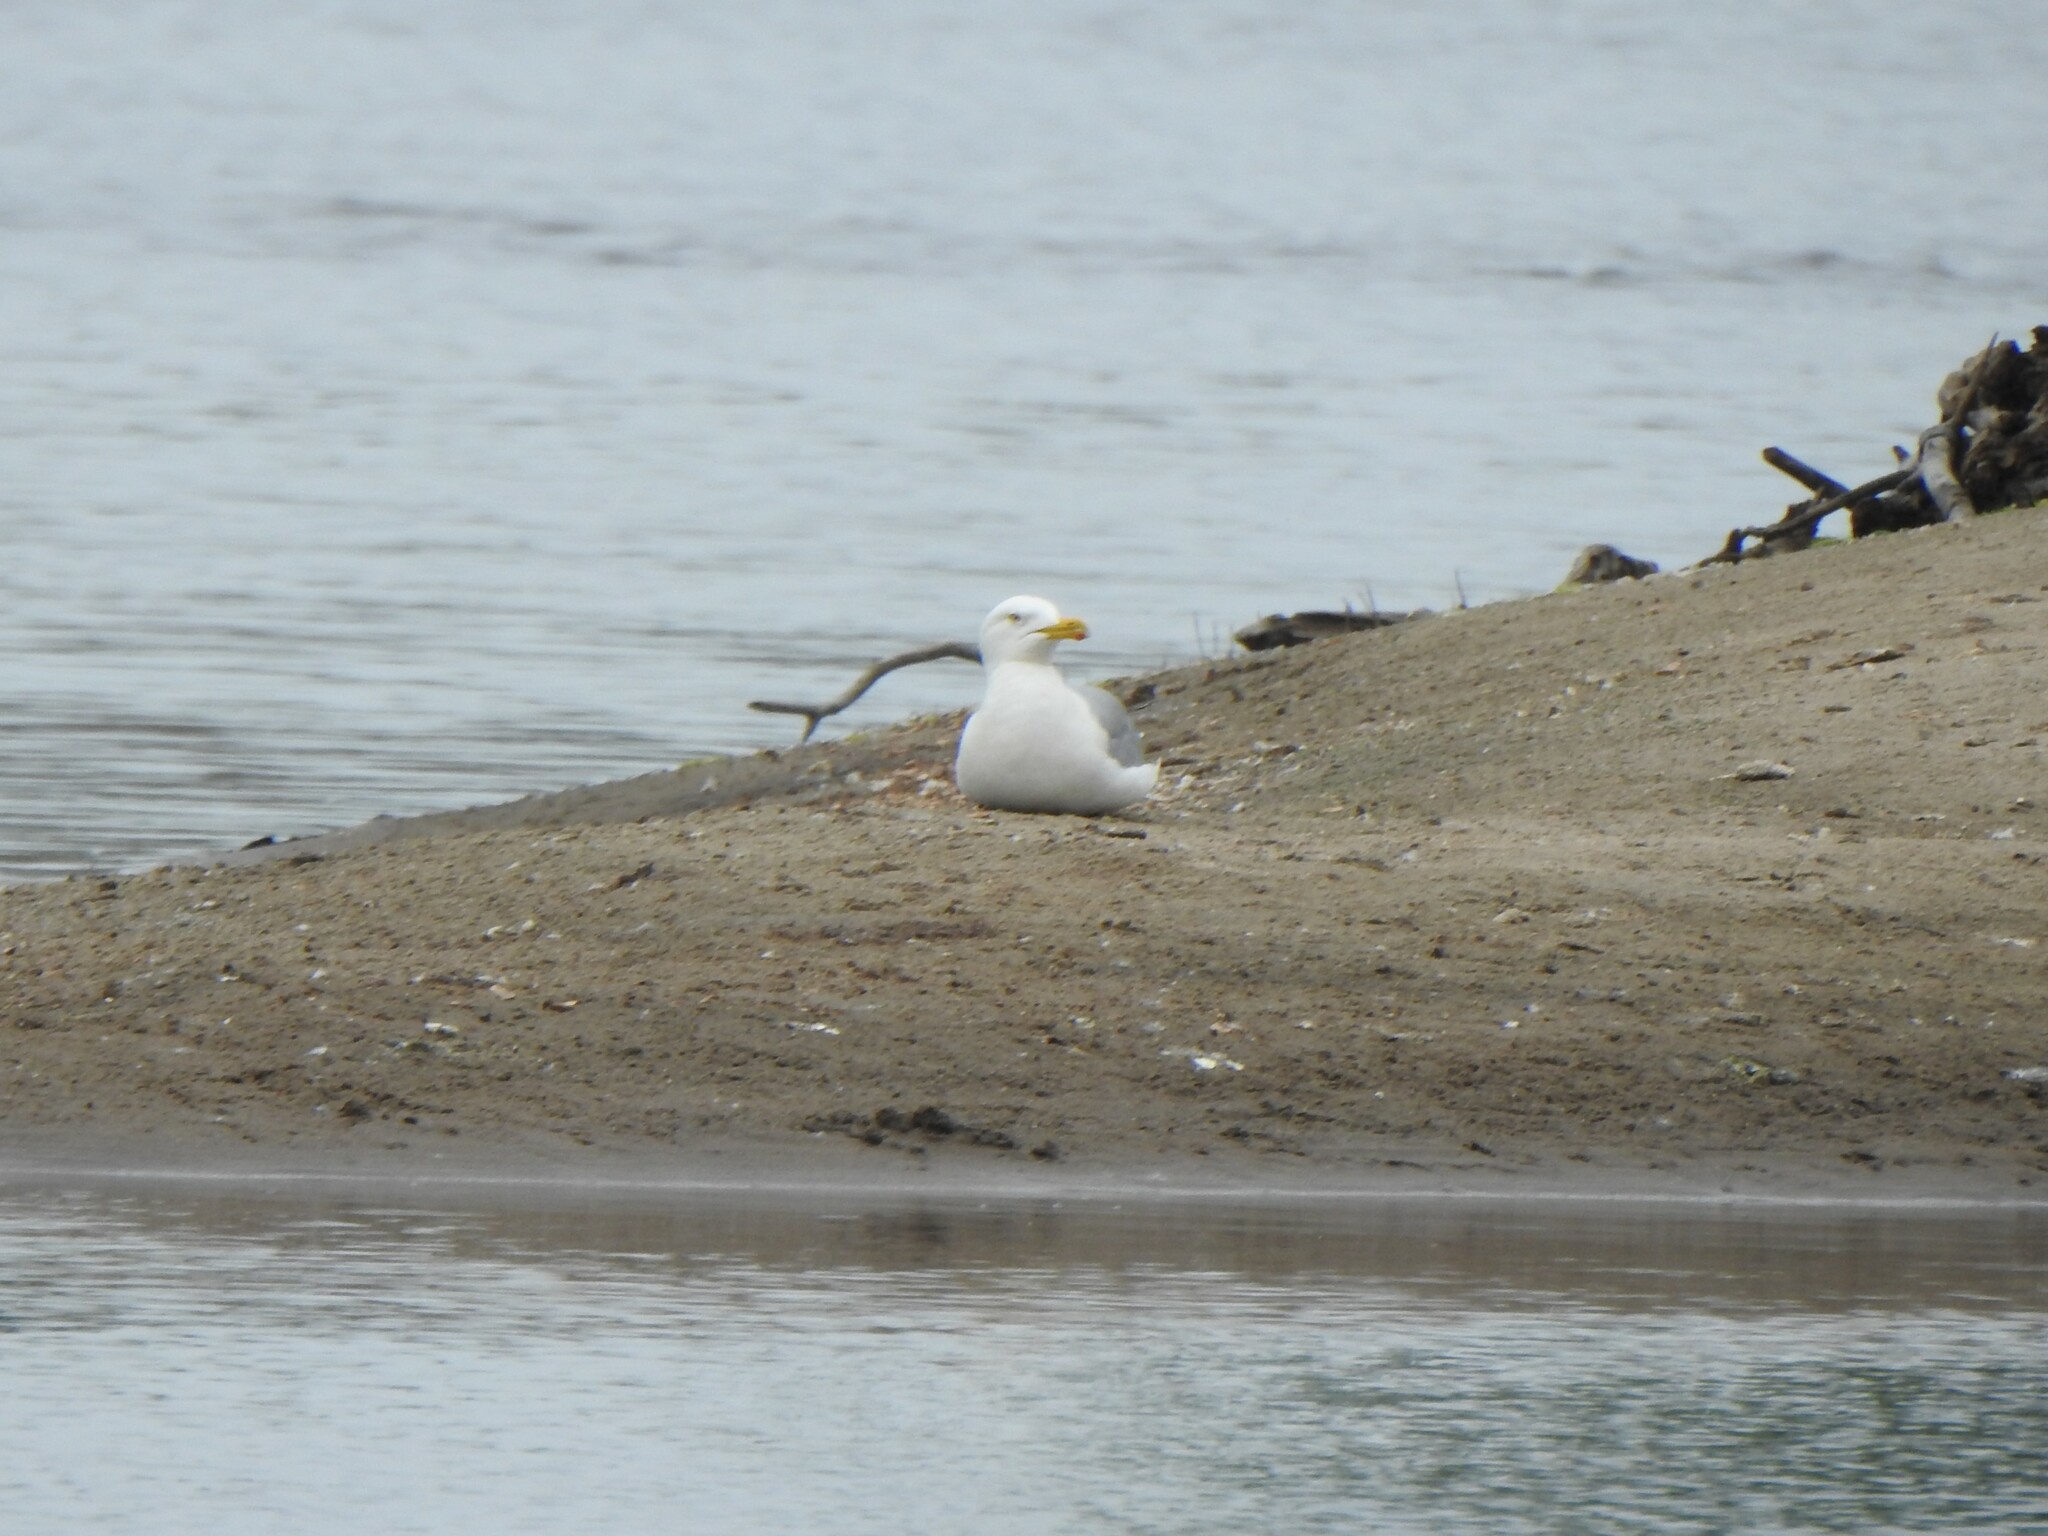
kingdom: Animalia
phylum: Chordata
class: Aves
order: Charadriiformes
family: Laridae
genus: Larus
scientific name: Larus argentatus
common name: Herring gull
